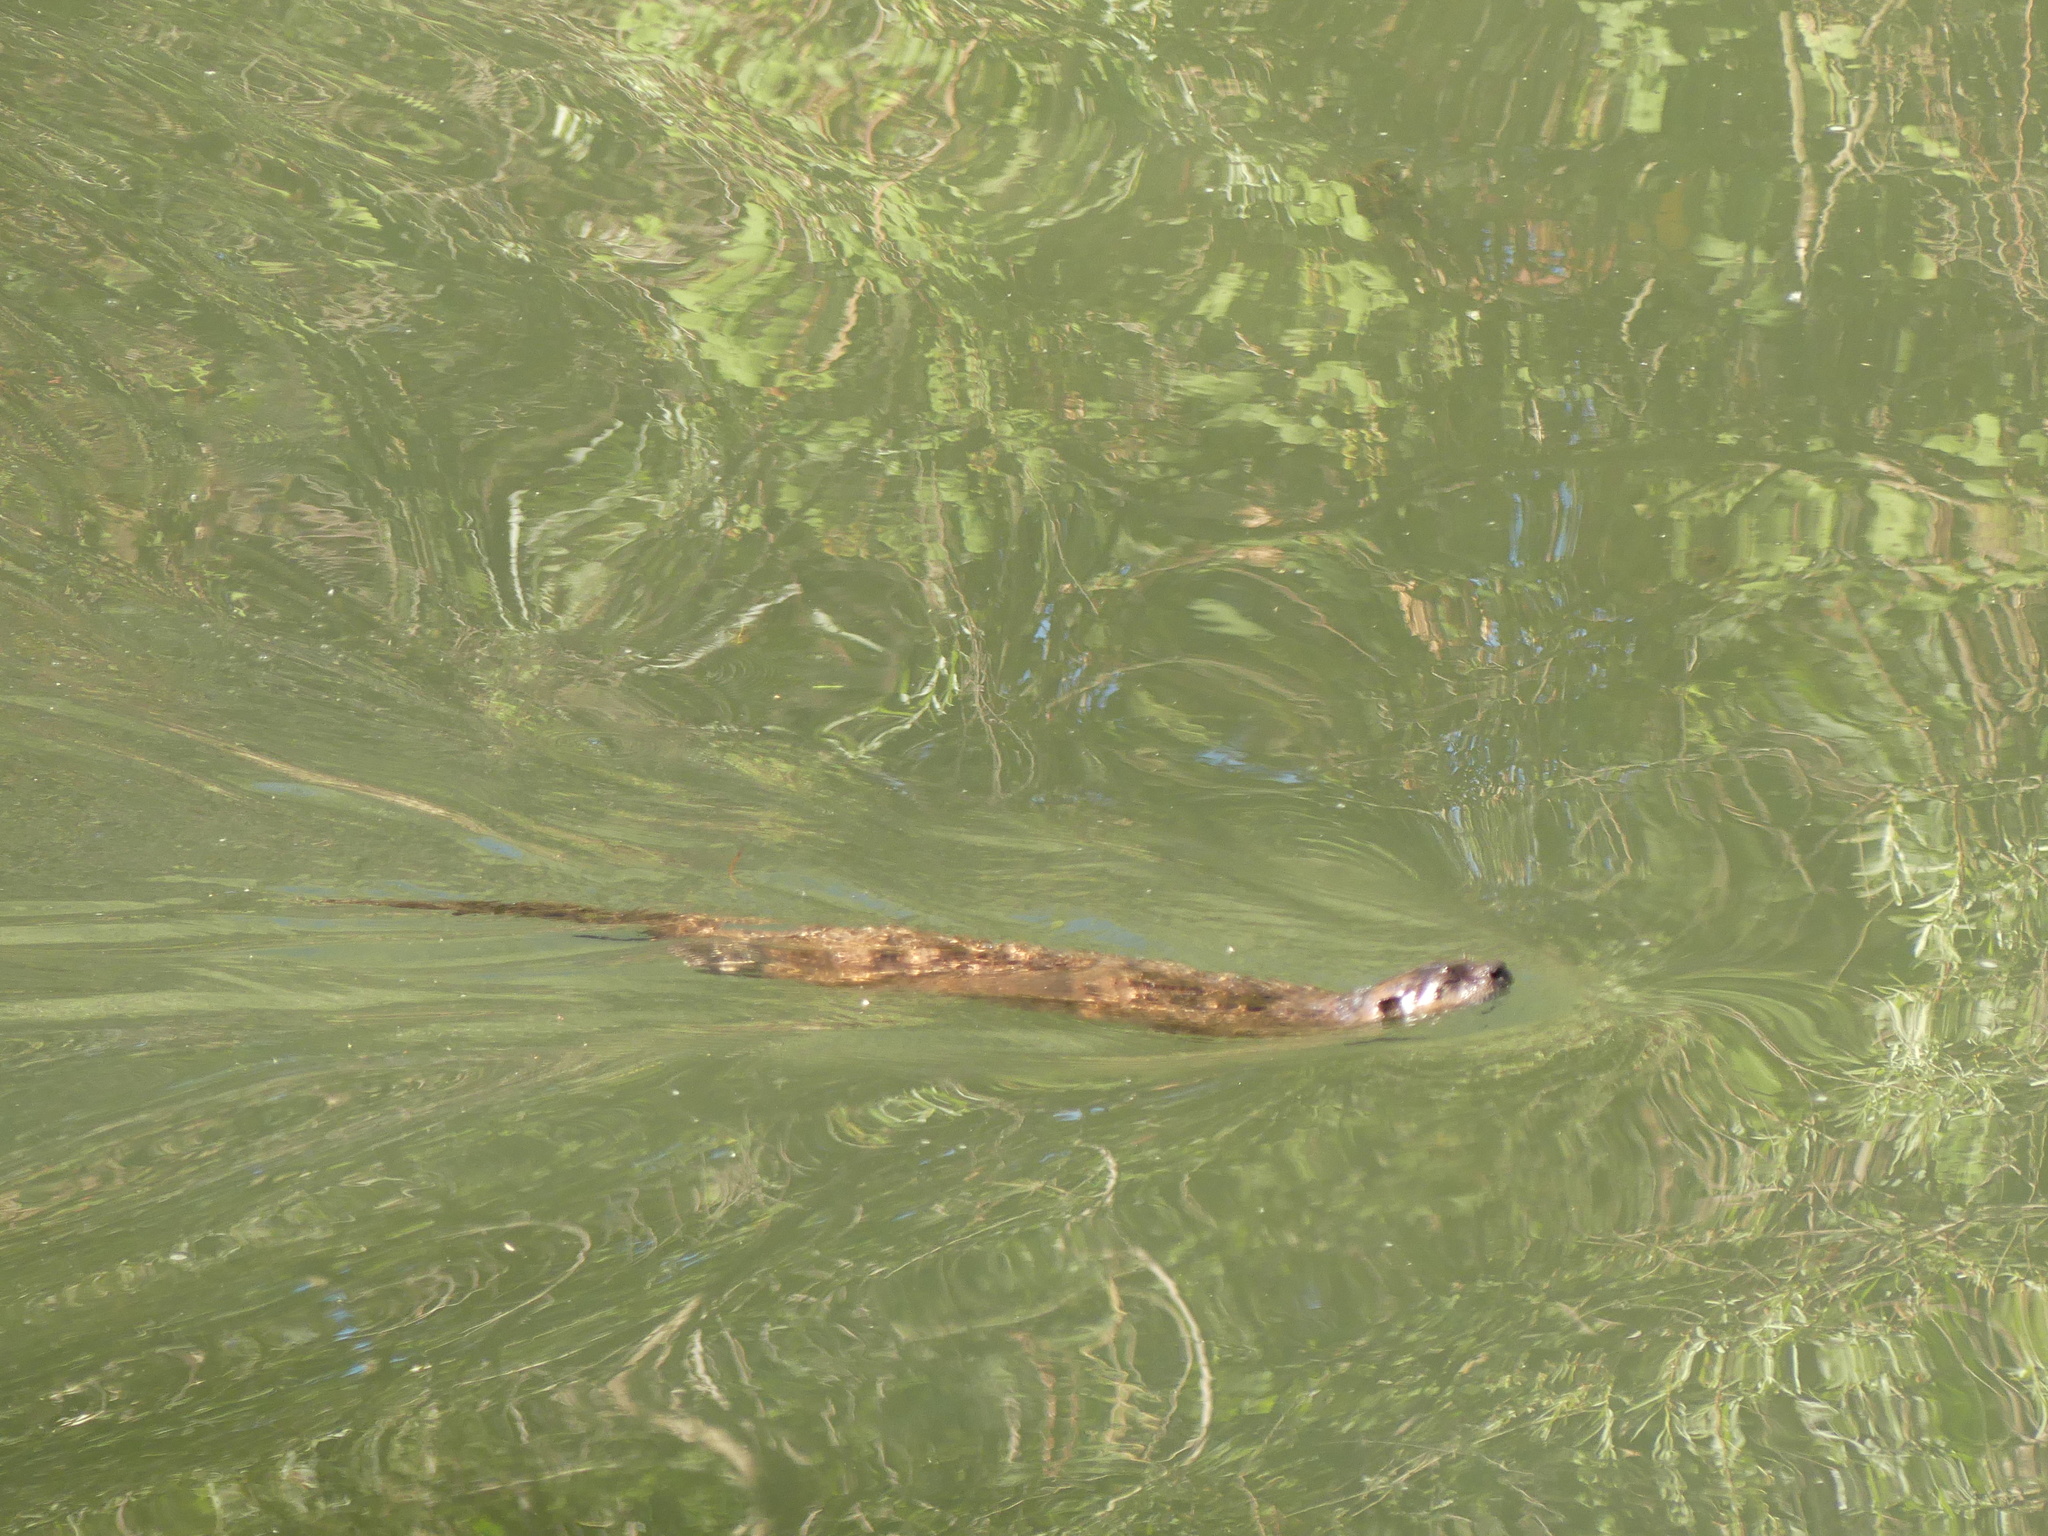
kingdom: Animalia
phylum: Chordata
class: Mammalia
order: Carnivora
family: Mustelidae
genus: Lontra
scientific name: Lontra canadensis
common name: North american river otter
